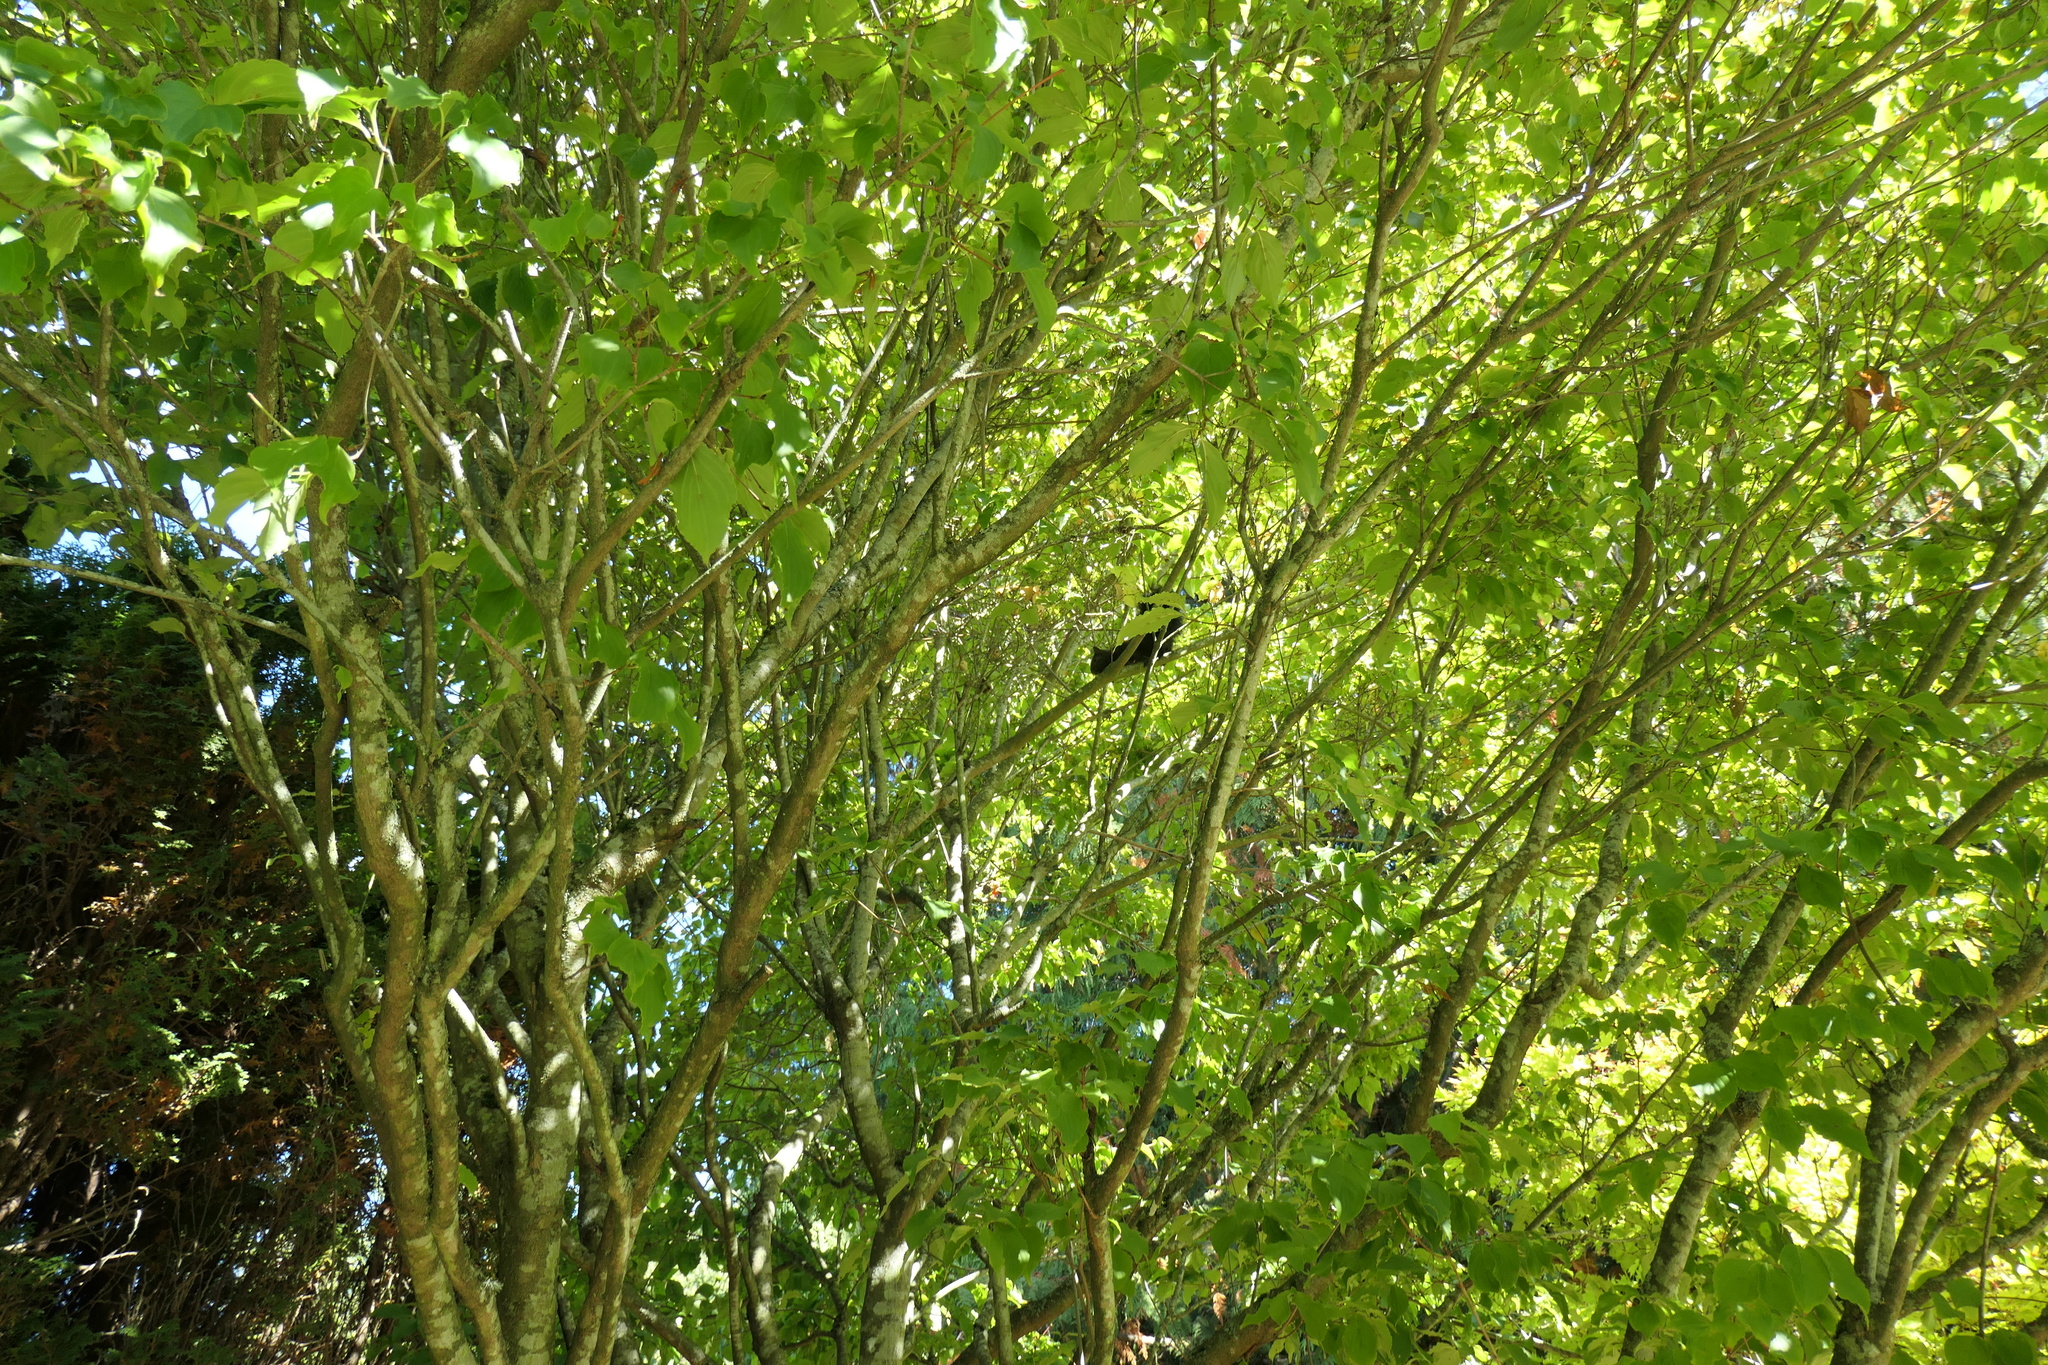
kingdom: Animalia
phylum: Chordata
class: Mammalia
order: Rodentia
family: Sciuridae
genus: Sciurus
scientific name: Sciurus carolinensis
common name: Eastern gray squirrel
